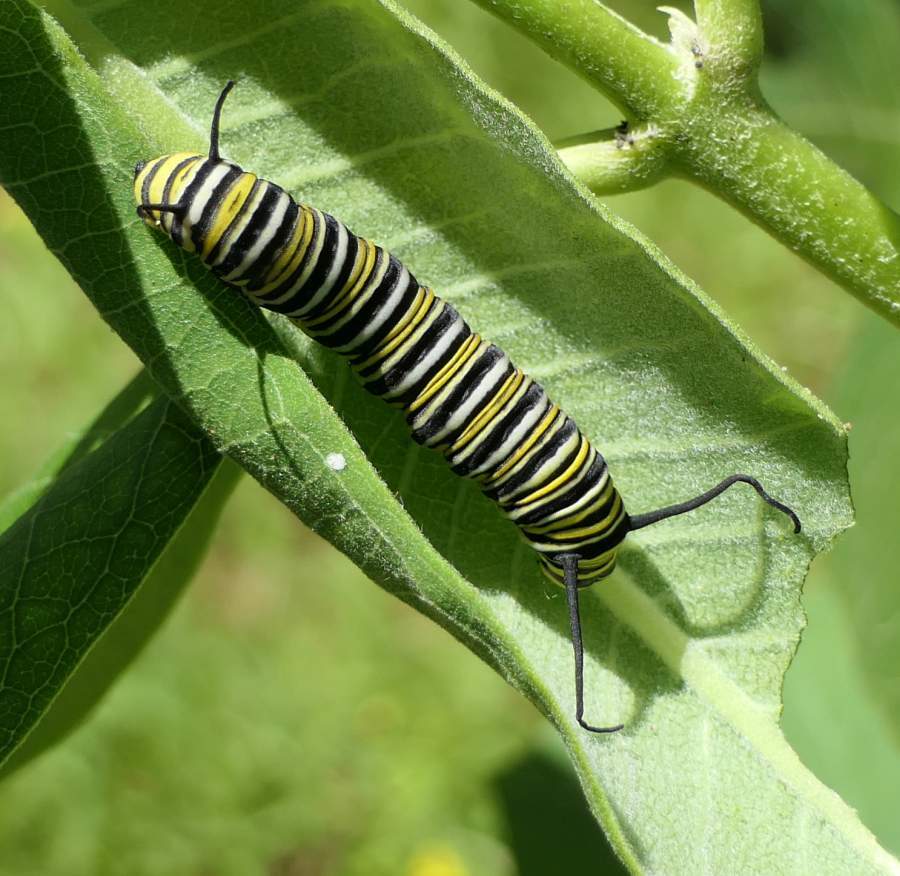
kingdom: Animalia
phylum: Arthropoda
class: Insecta
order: Lepidoptera
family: Nymphalidae
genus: Danaus
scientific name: Danaus plexippus
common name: Monarch
